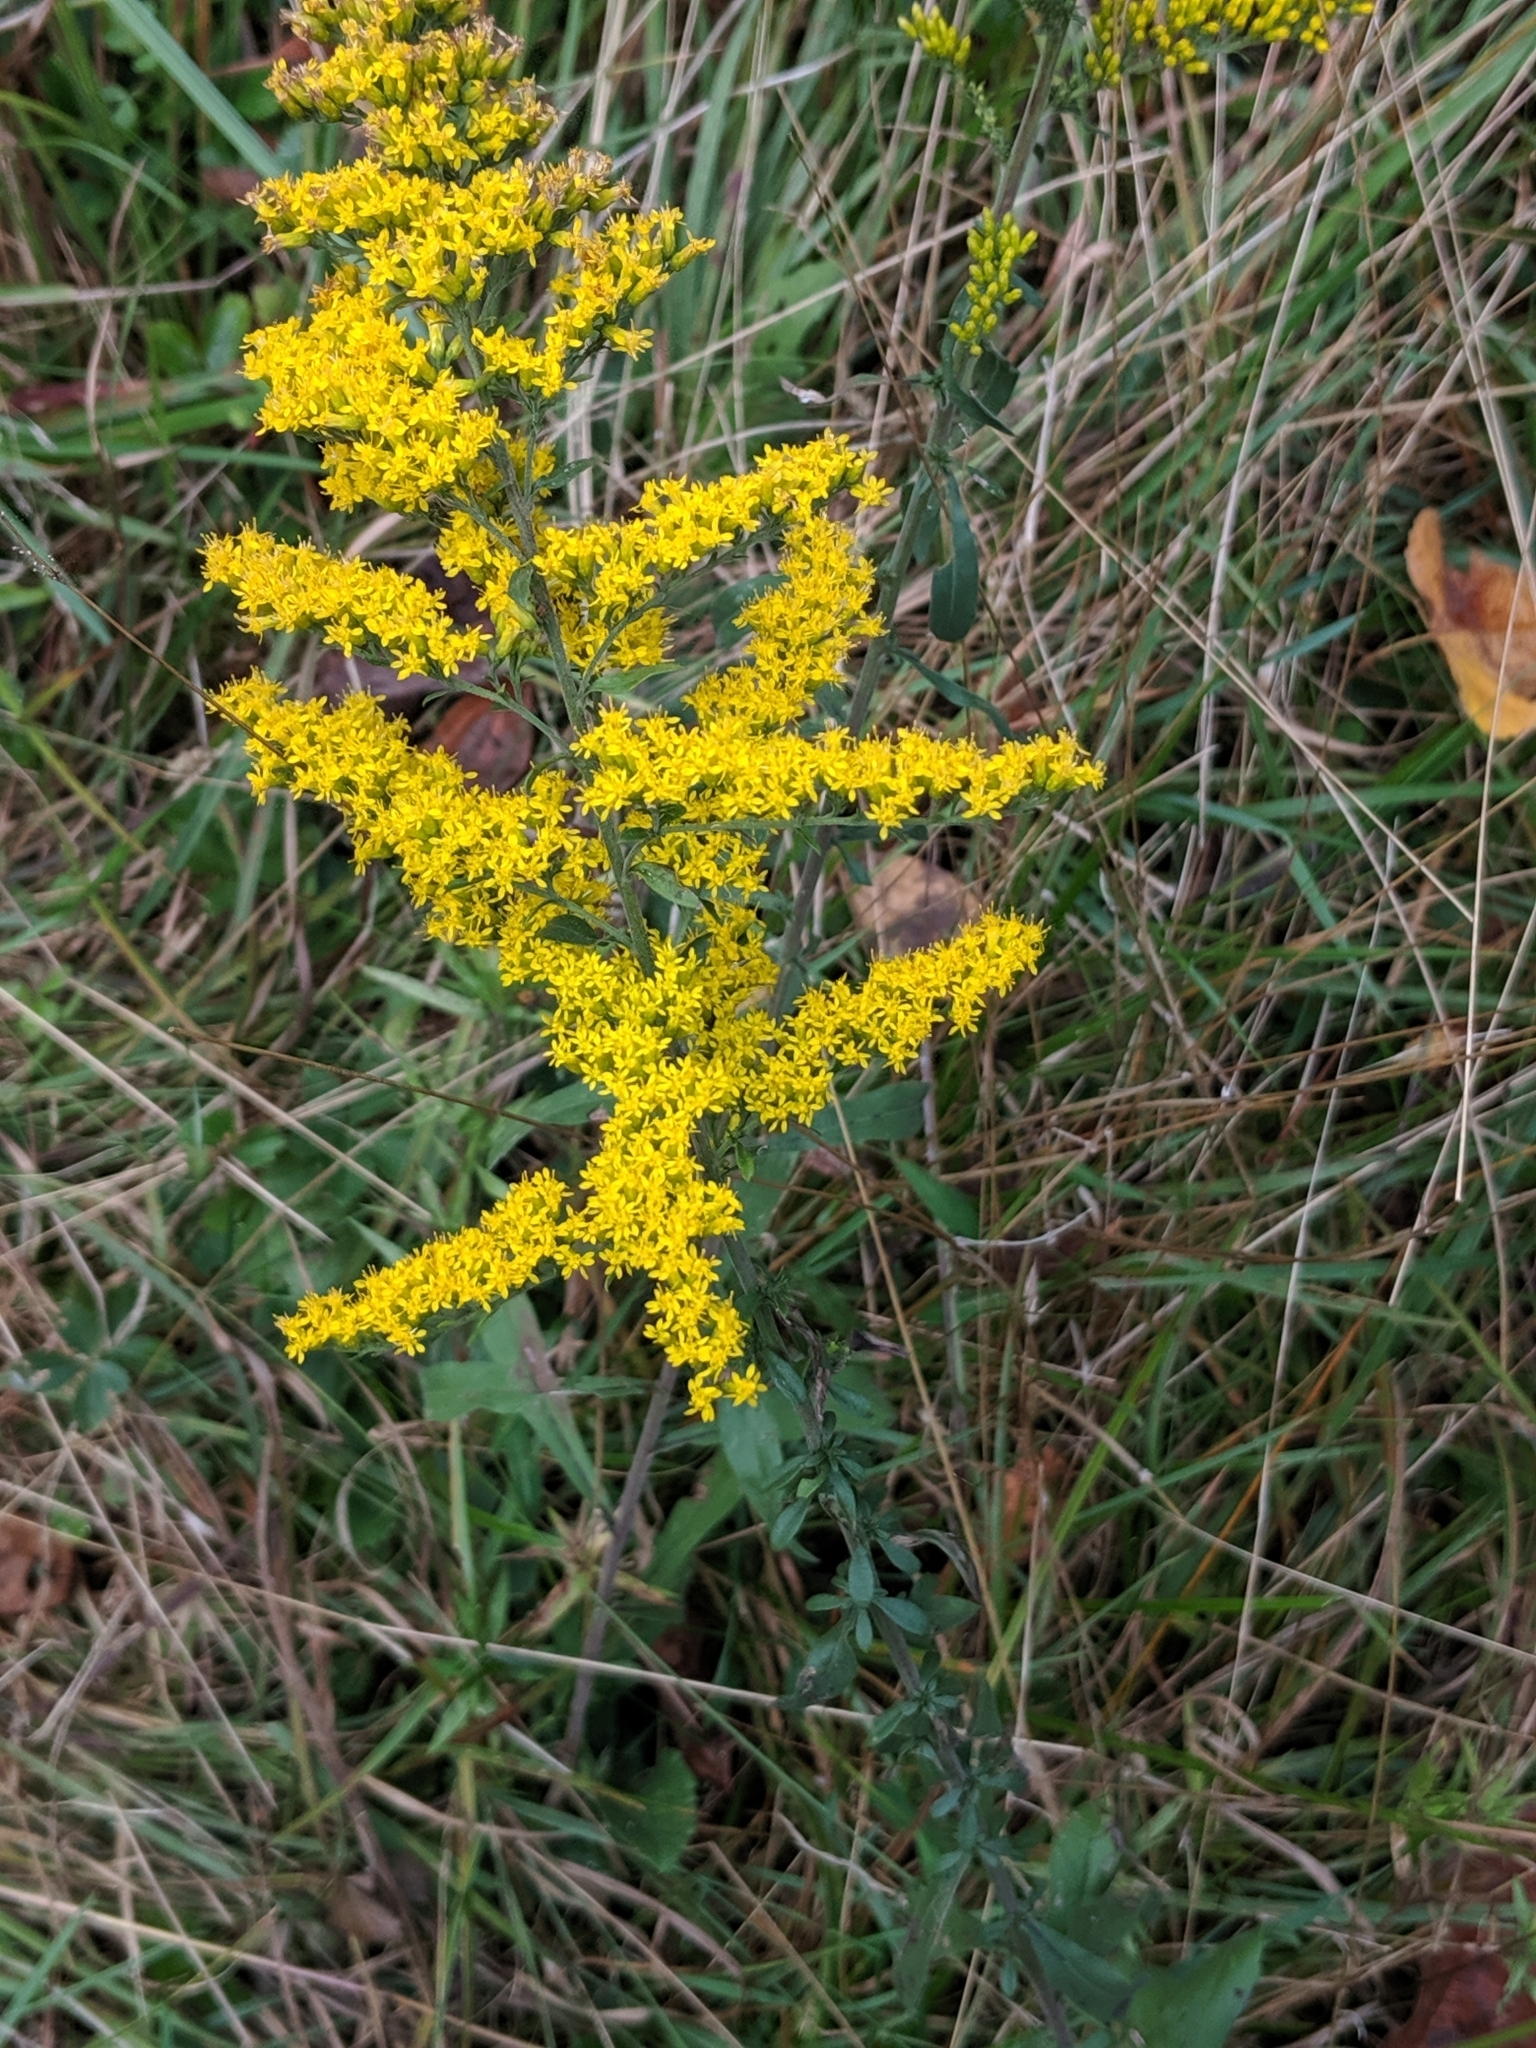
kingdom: Plantae
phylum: Tracheophyta
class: Magnoliopsida
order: Asterales
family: Asteraceae
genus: Solidago
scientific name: Solidago nemoralis
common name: Grey goldenrod
